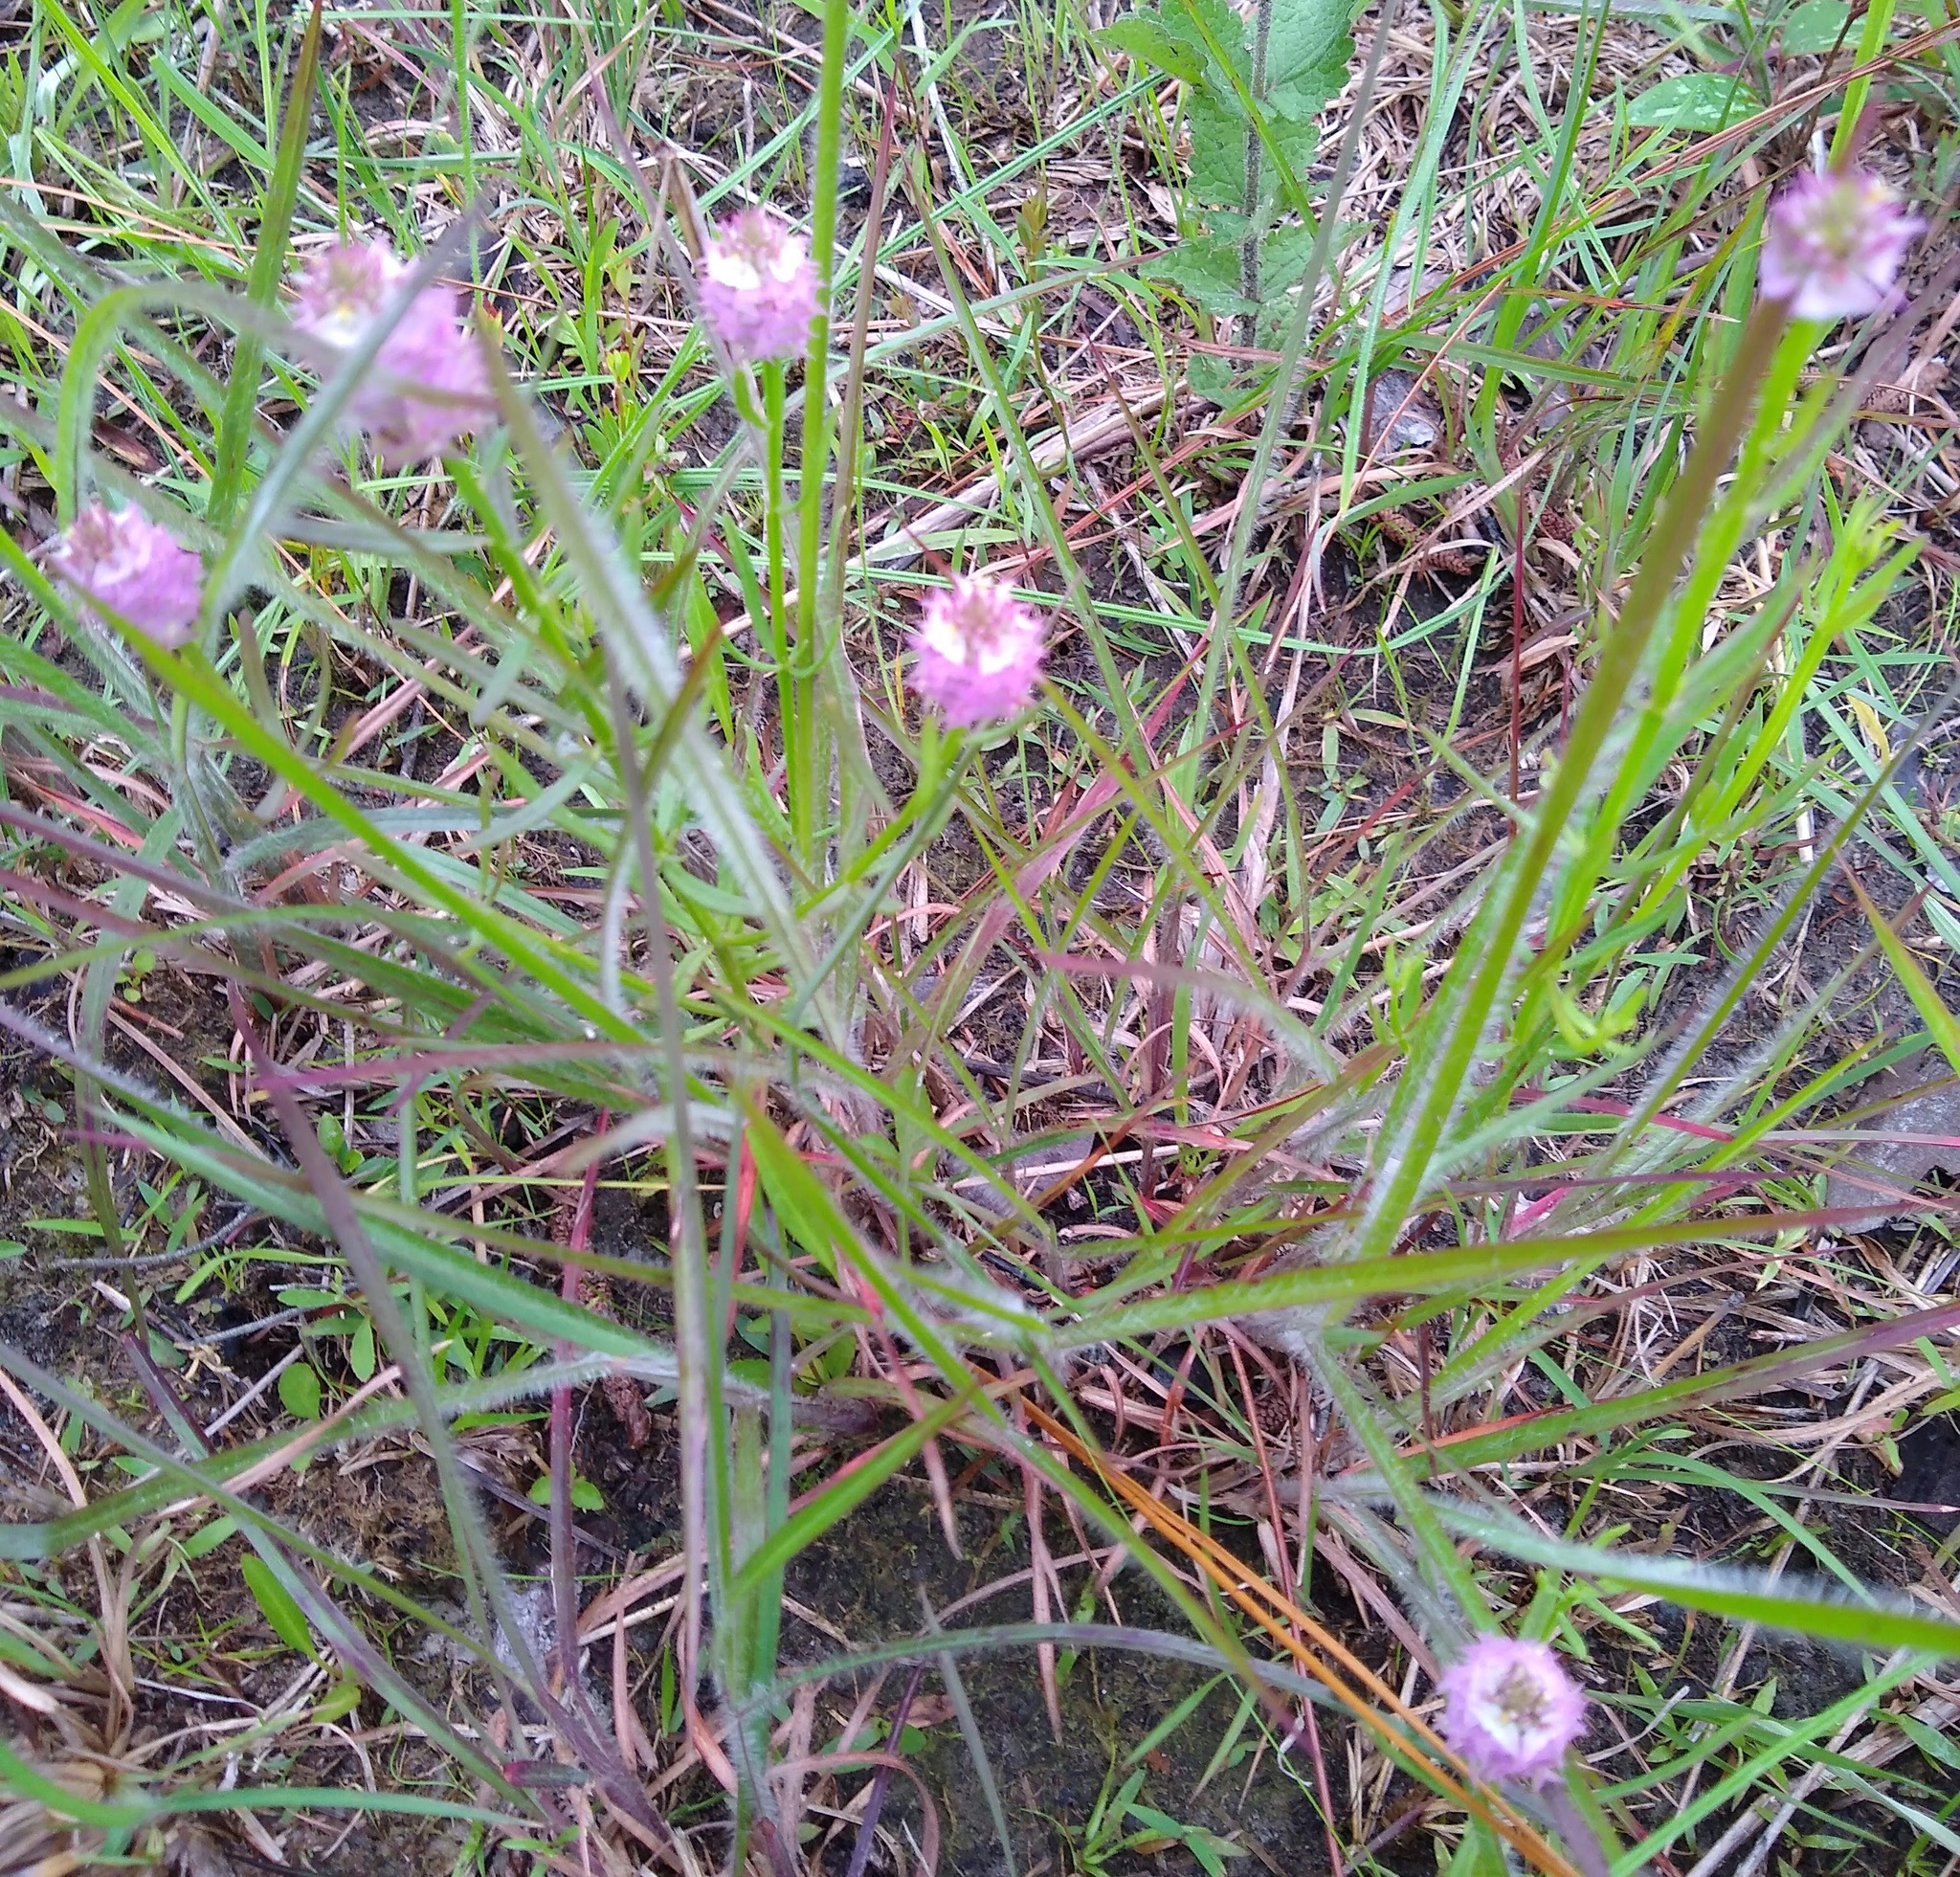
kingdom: Plantae
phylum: Tracheophyta
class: Magnoliopsida
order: Fabales
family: Polygalaceae
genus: Polygala
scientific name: Polygala cruciata
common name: Drumheads
